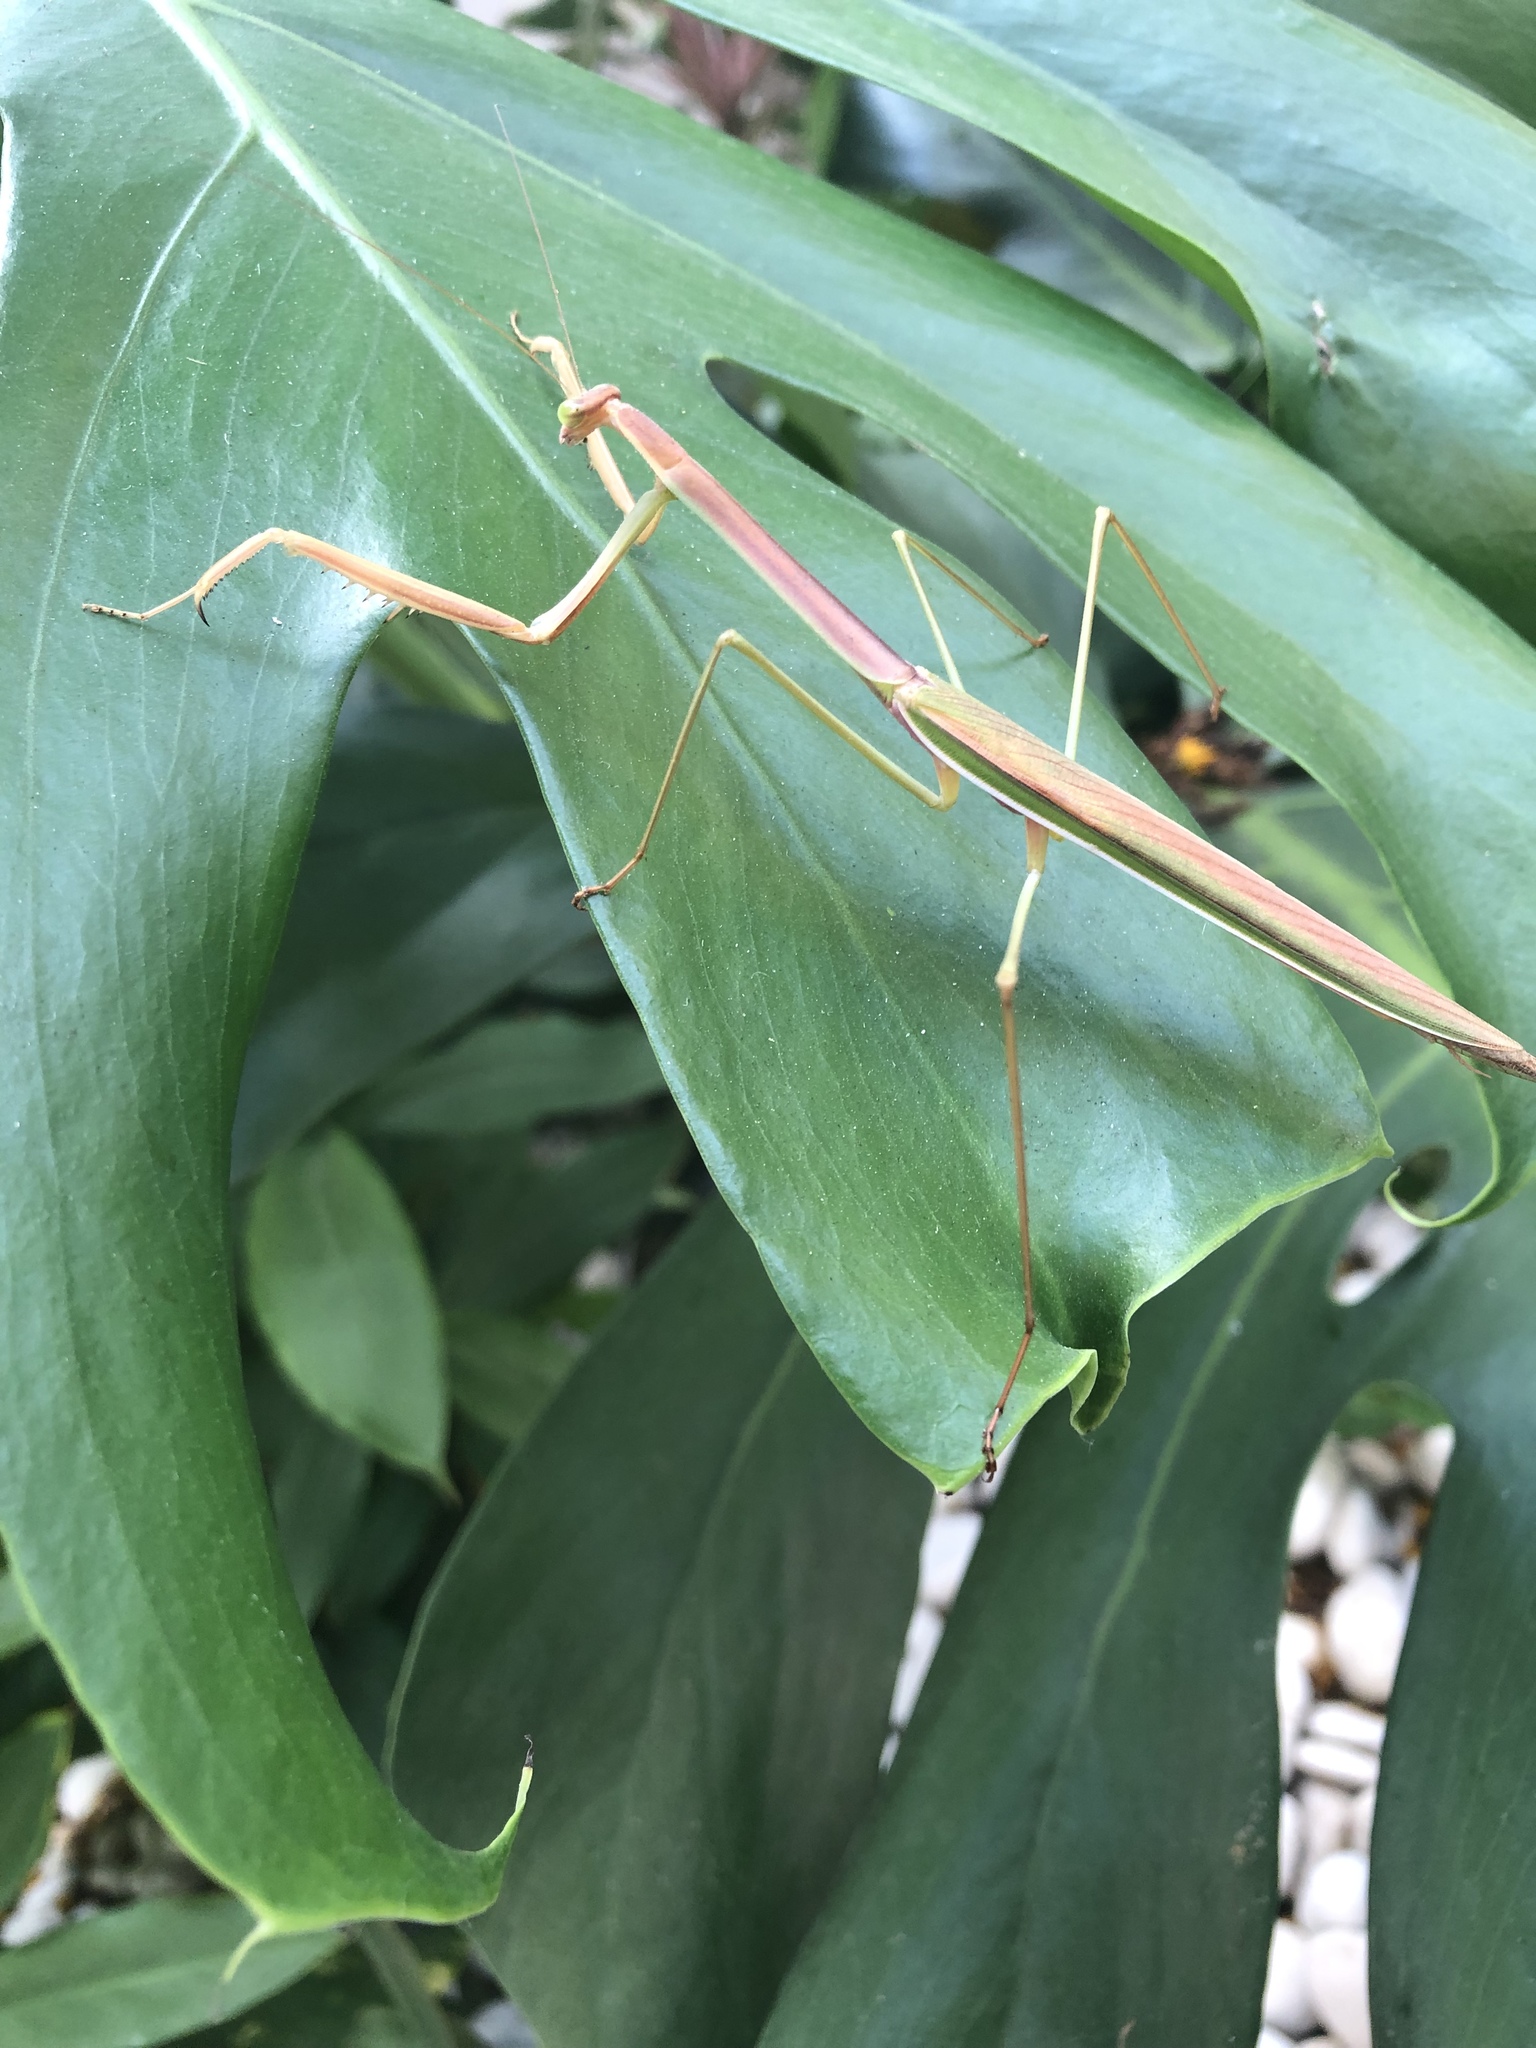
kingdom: Animalia
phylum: Arthropoda
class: Insecta
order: Mantodea
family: Mantidae
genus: Tenodera
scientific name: Tenodera
